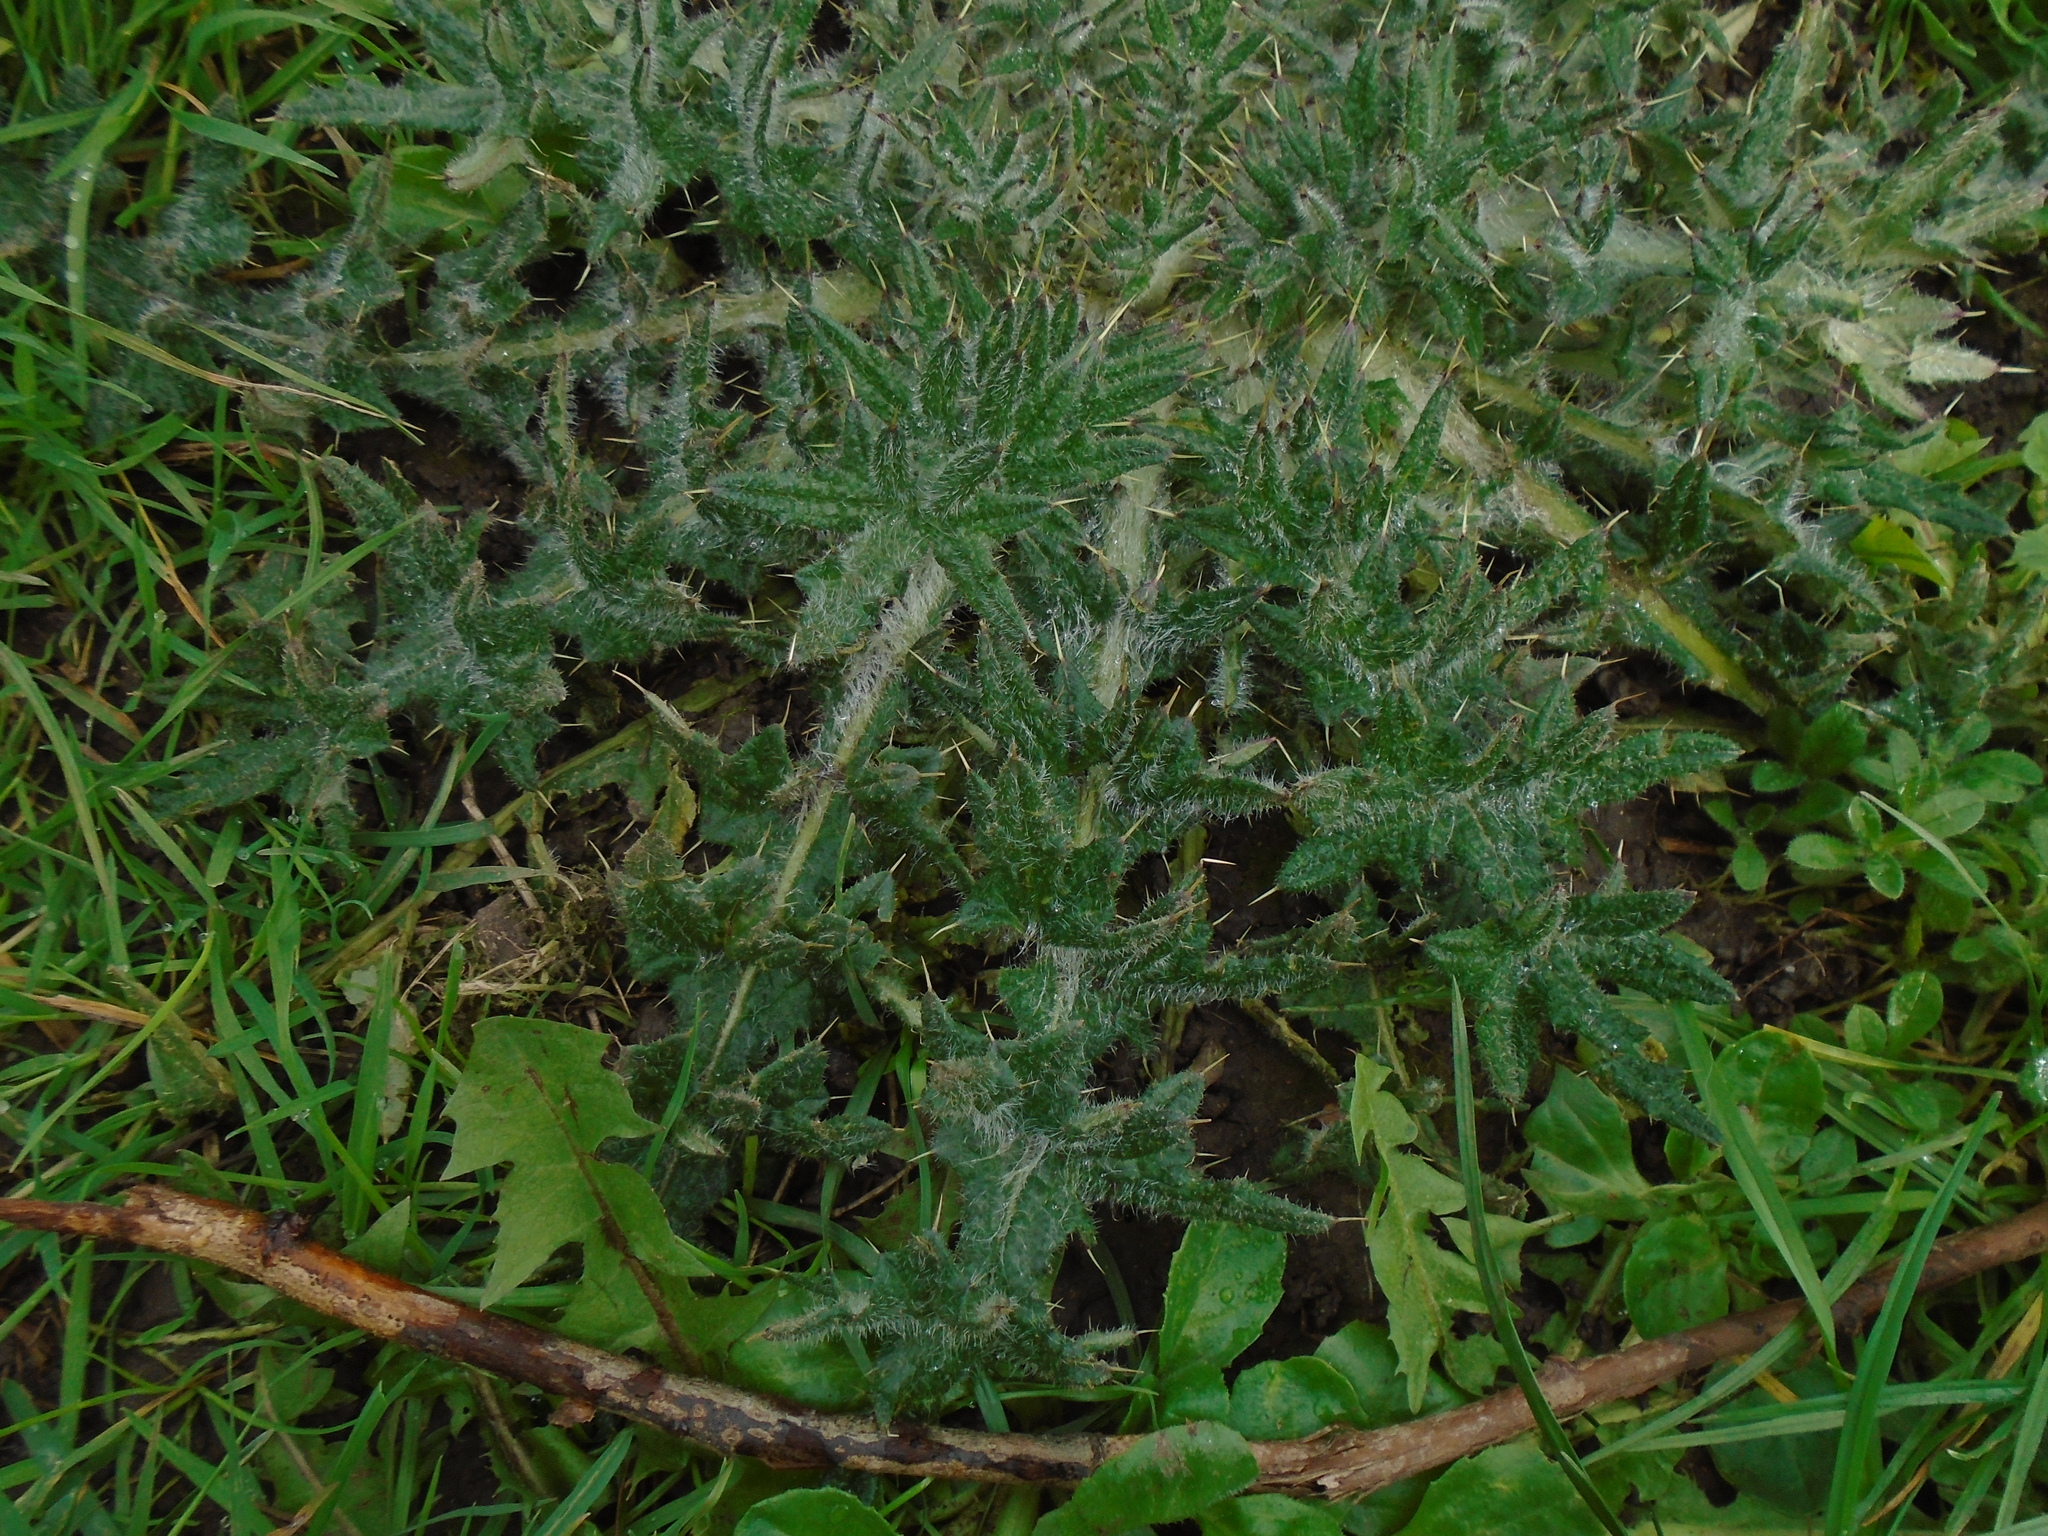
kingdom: Plantae
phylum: Tracheophyta
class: Magnoliopsida
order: Asterales
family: Asteraceae
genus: Cirsium
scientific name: Cirsium vulgare
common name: Bull thistle
